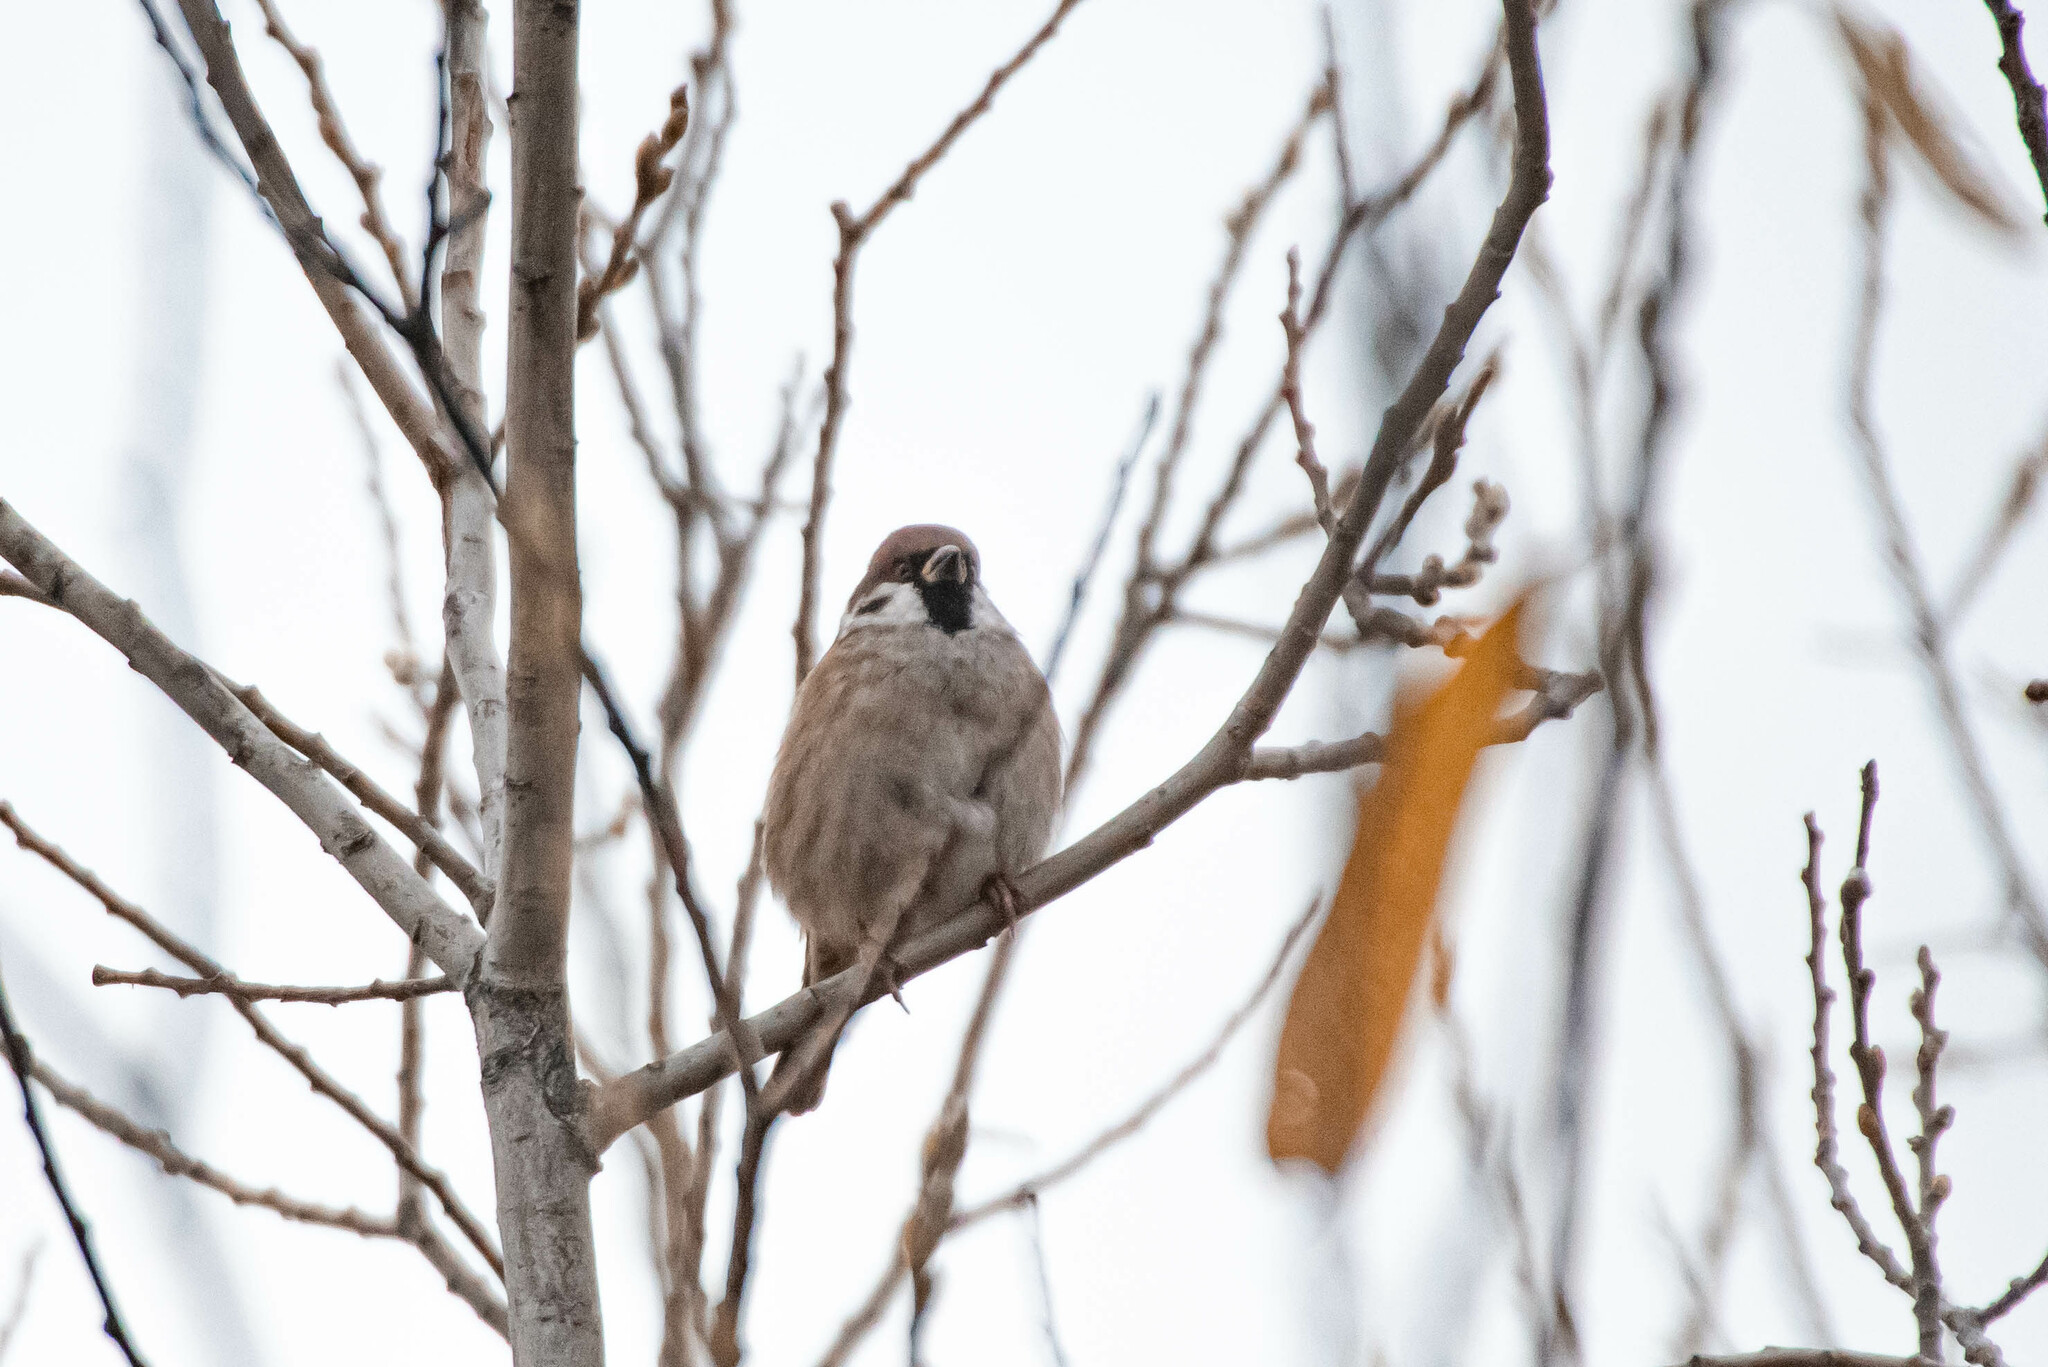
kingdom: Animalia
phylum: Chordata
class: Aves
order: Passeriformes
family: Passeridae
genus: Passer
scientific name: Passer montanus
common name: Eurasian tree sparrow
